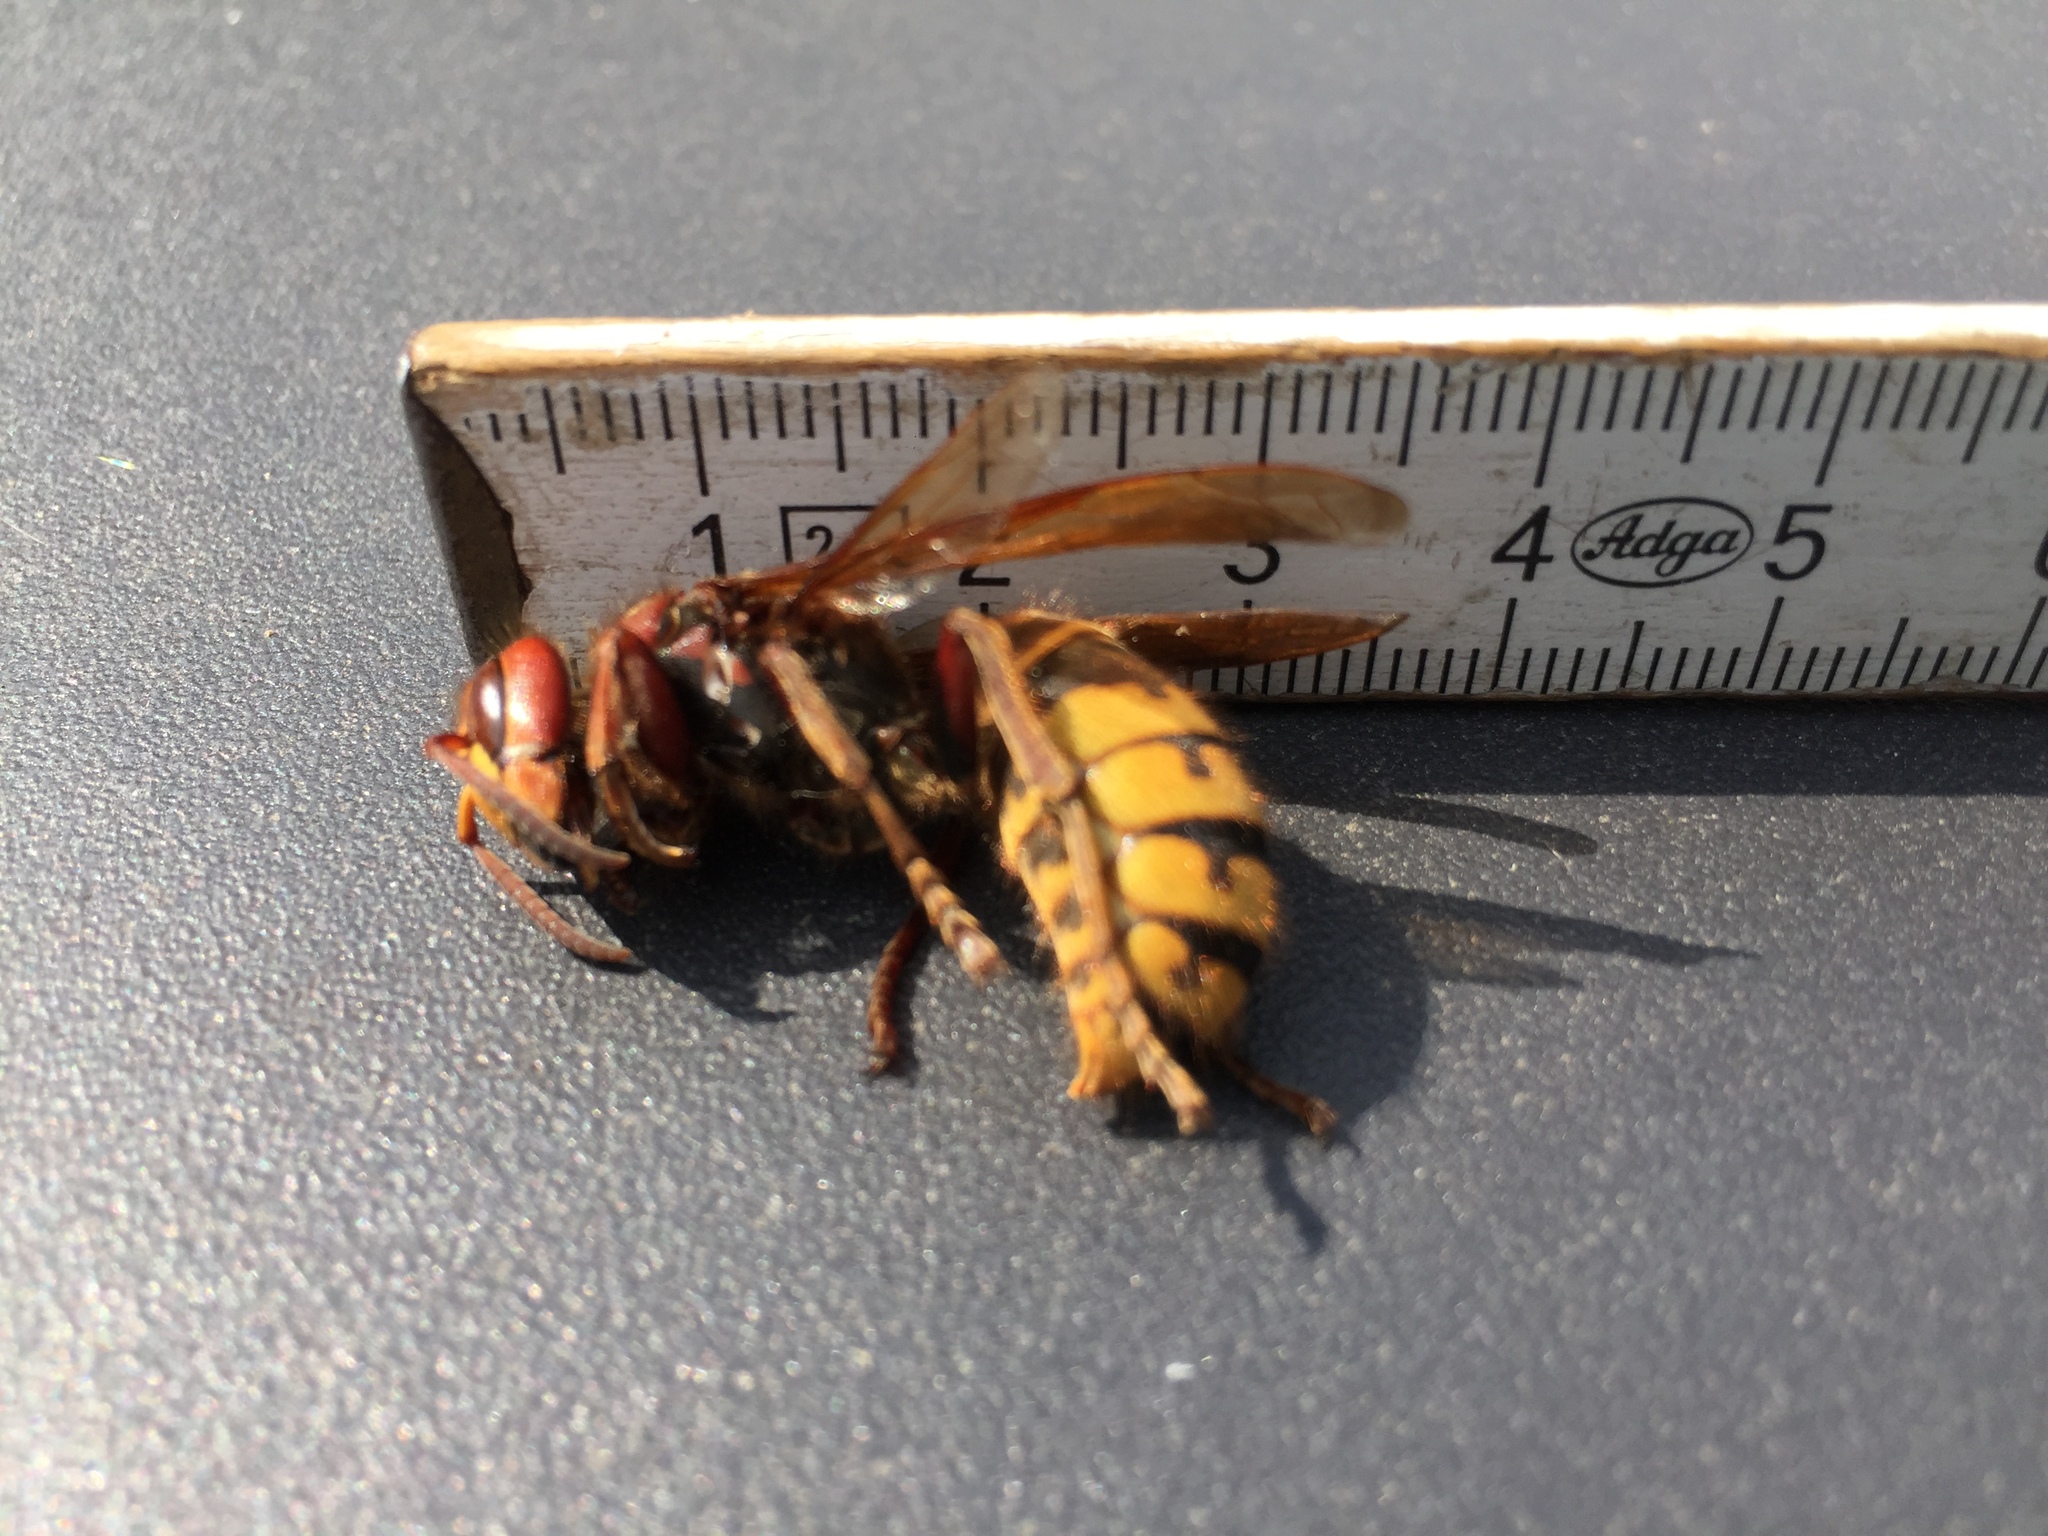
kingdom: Animalia
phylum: Arthropoda
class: Insecta
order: Hymenoptera
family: Vespidae
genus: Vespa
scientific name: Vespa crabro
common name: Hornet
